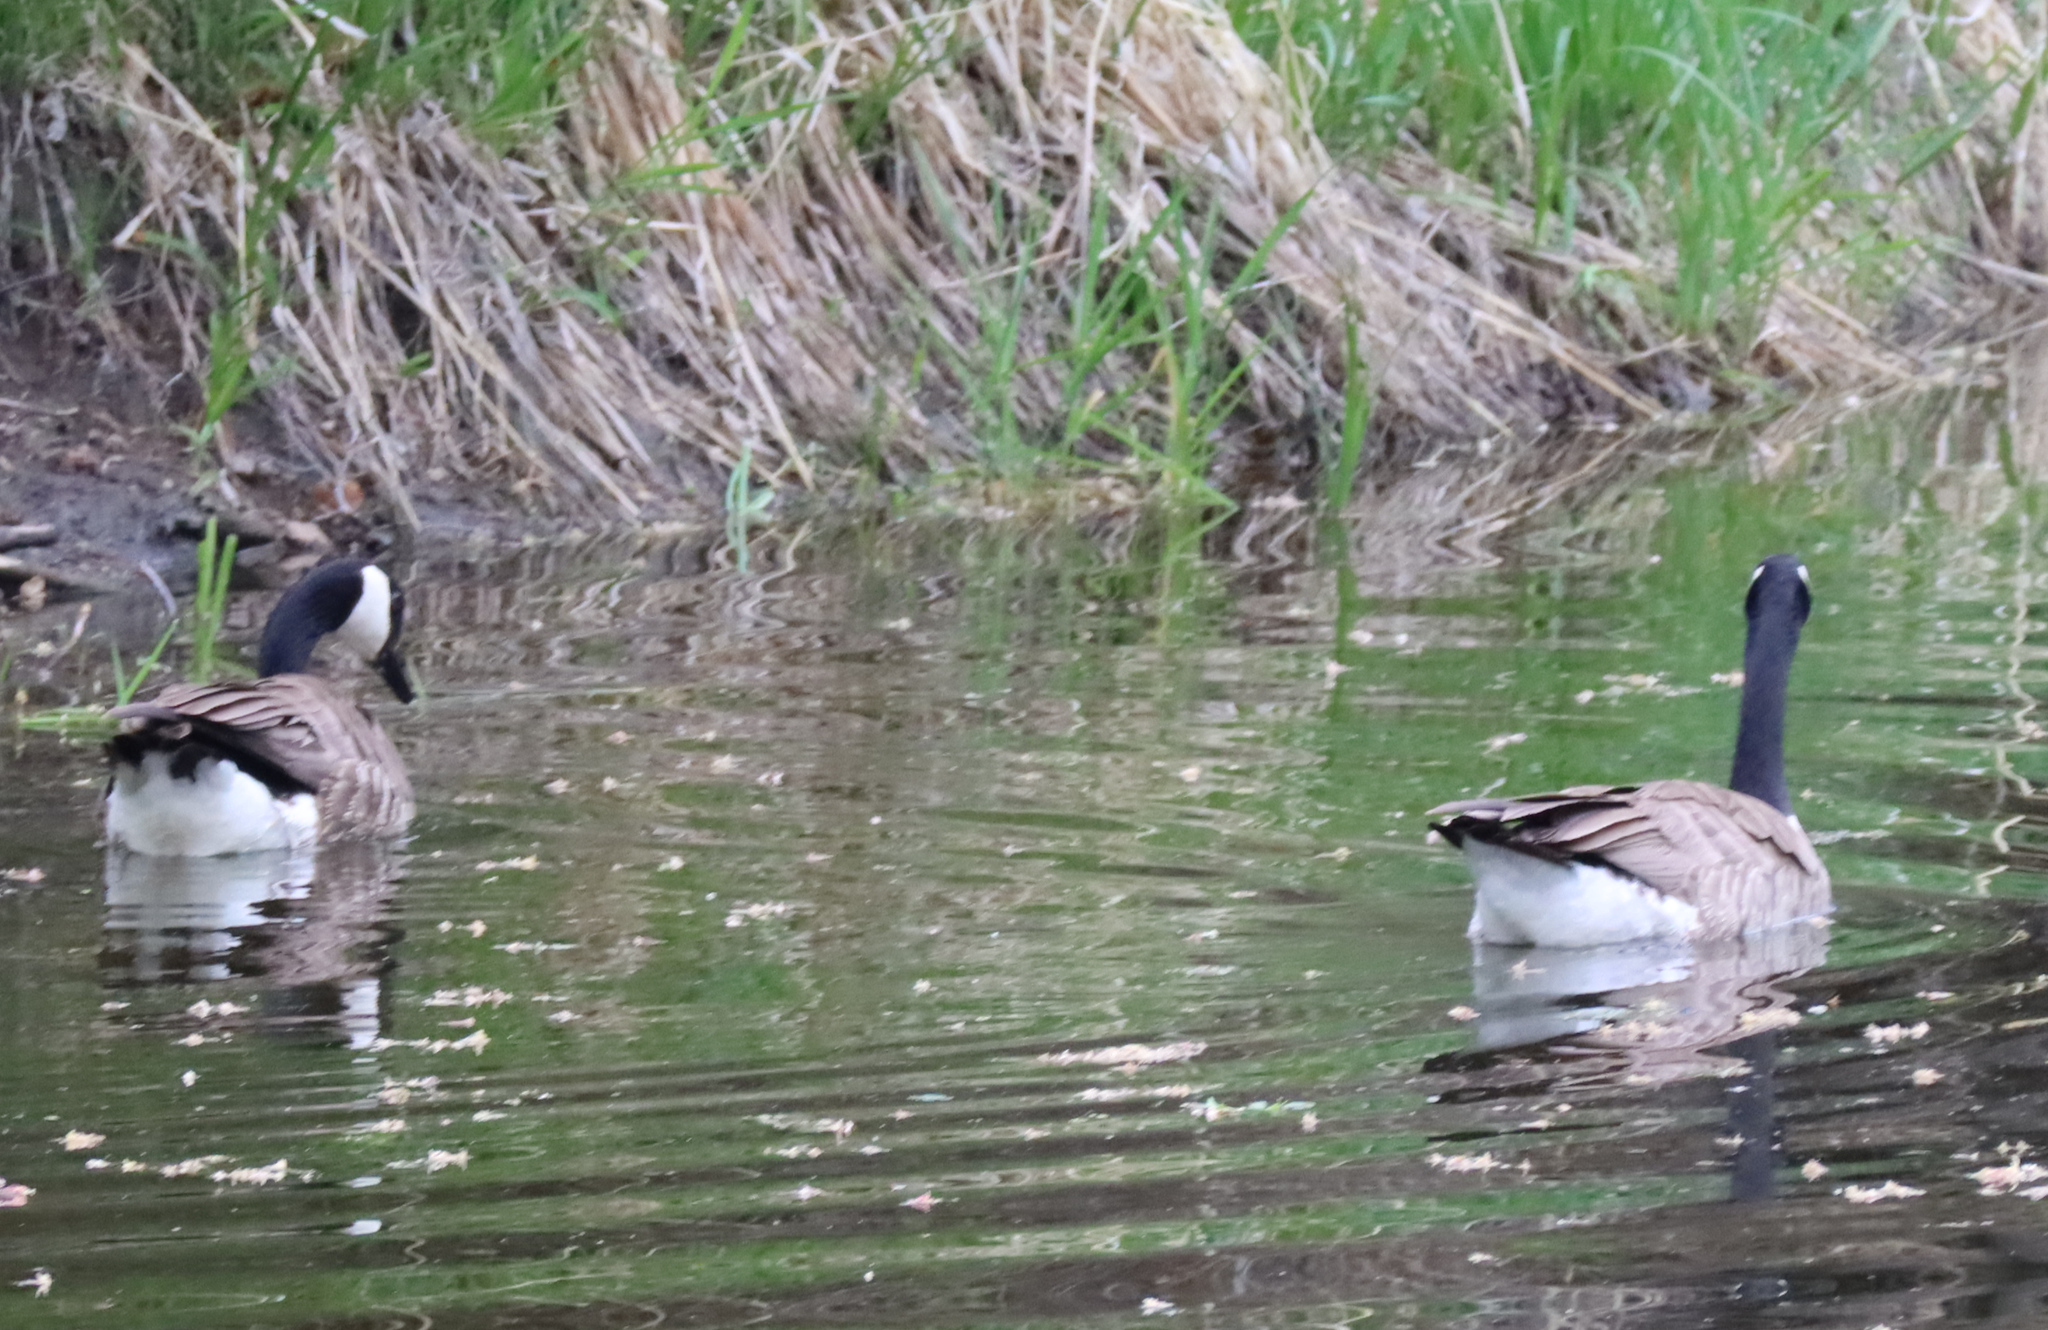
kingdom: Animalia
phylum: Chordata
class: Aves
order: Anseriformes
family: Anatidae
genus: Branta
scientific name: Branta canadensis
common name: Canada goose
